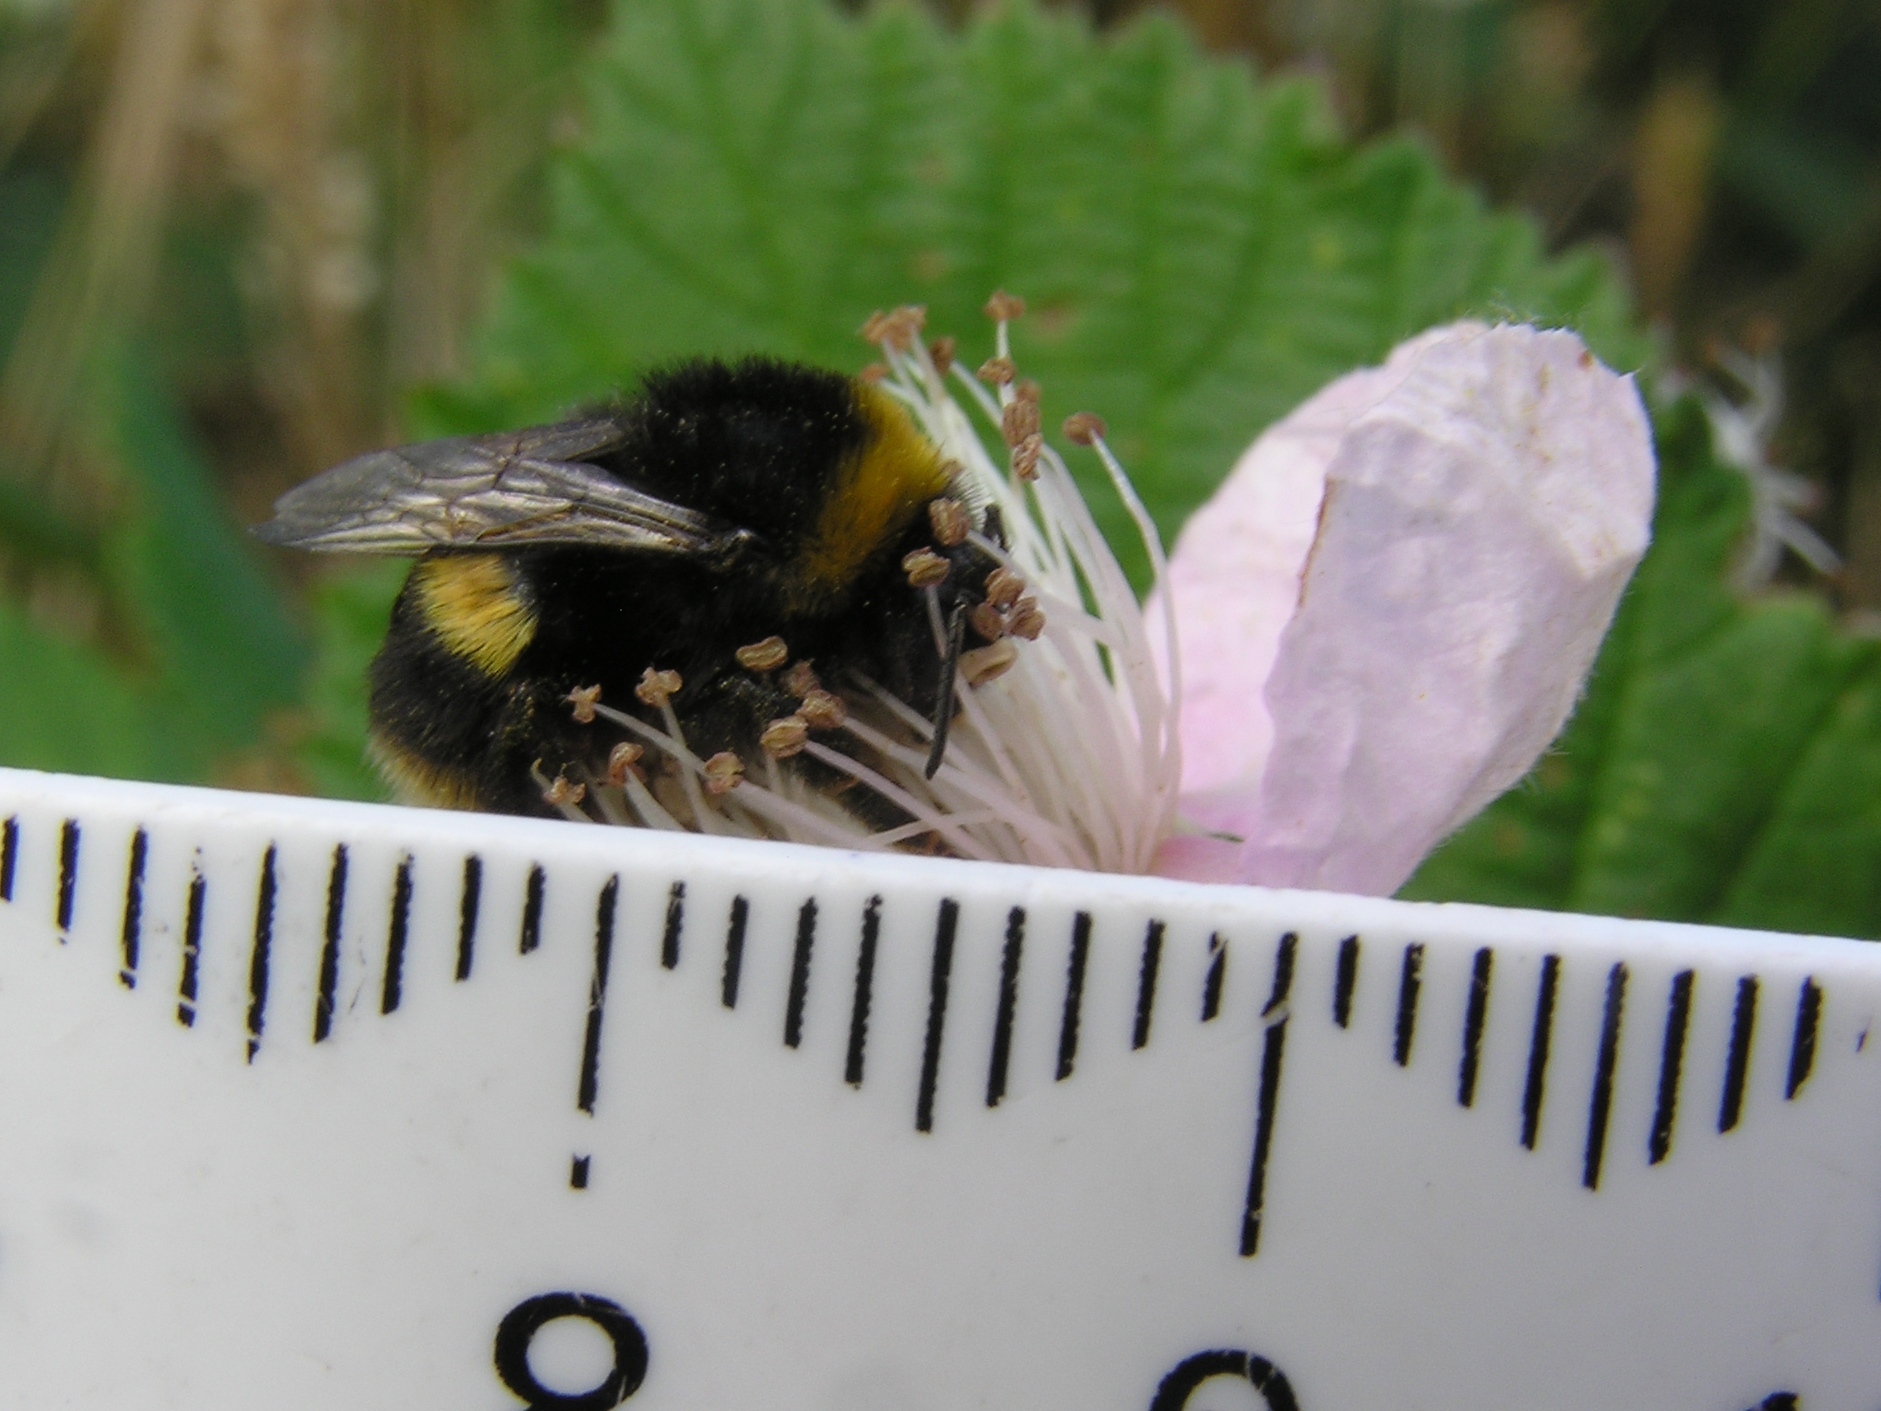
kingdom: Animalia
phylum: Arthropoda
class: Insecta
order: Hymenoptera
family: Apidae
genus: Bombus
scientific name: Bombus terrestris
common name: Buff-tailed bumblebee
